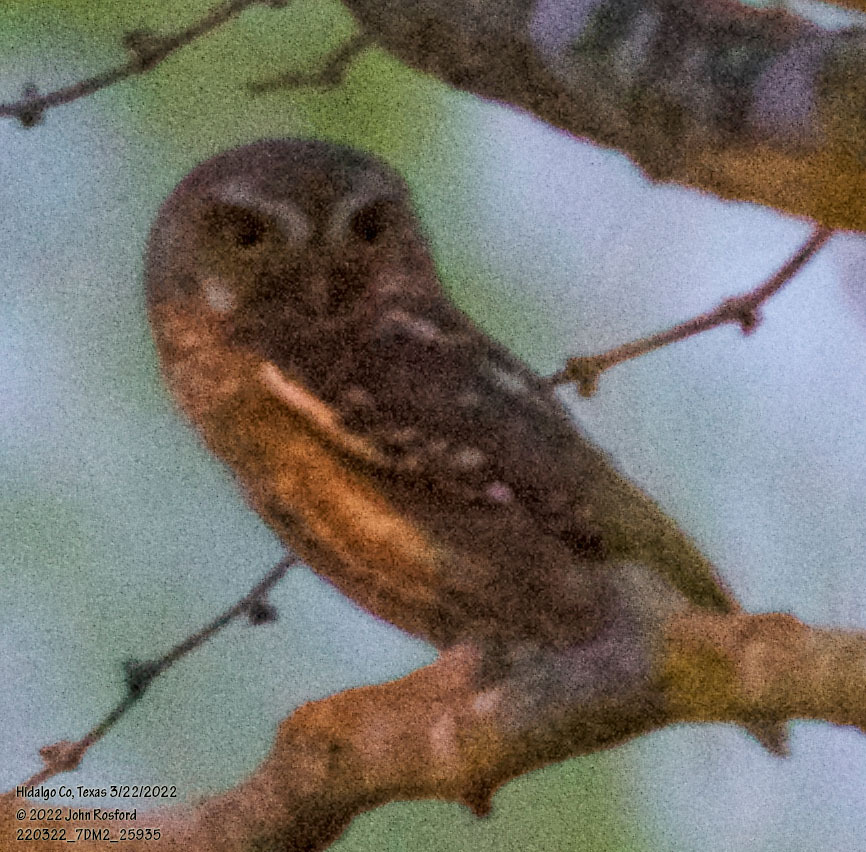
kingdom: Animalia
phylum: Chordata
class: Aves
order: Strigiformes
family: Strigidae
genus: Micrathene
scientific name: Micrathene whitneyi
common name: Elf owl
